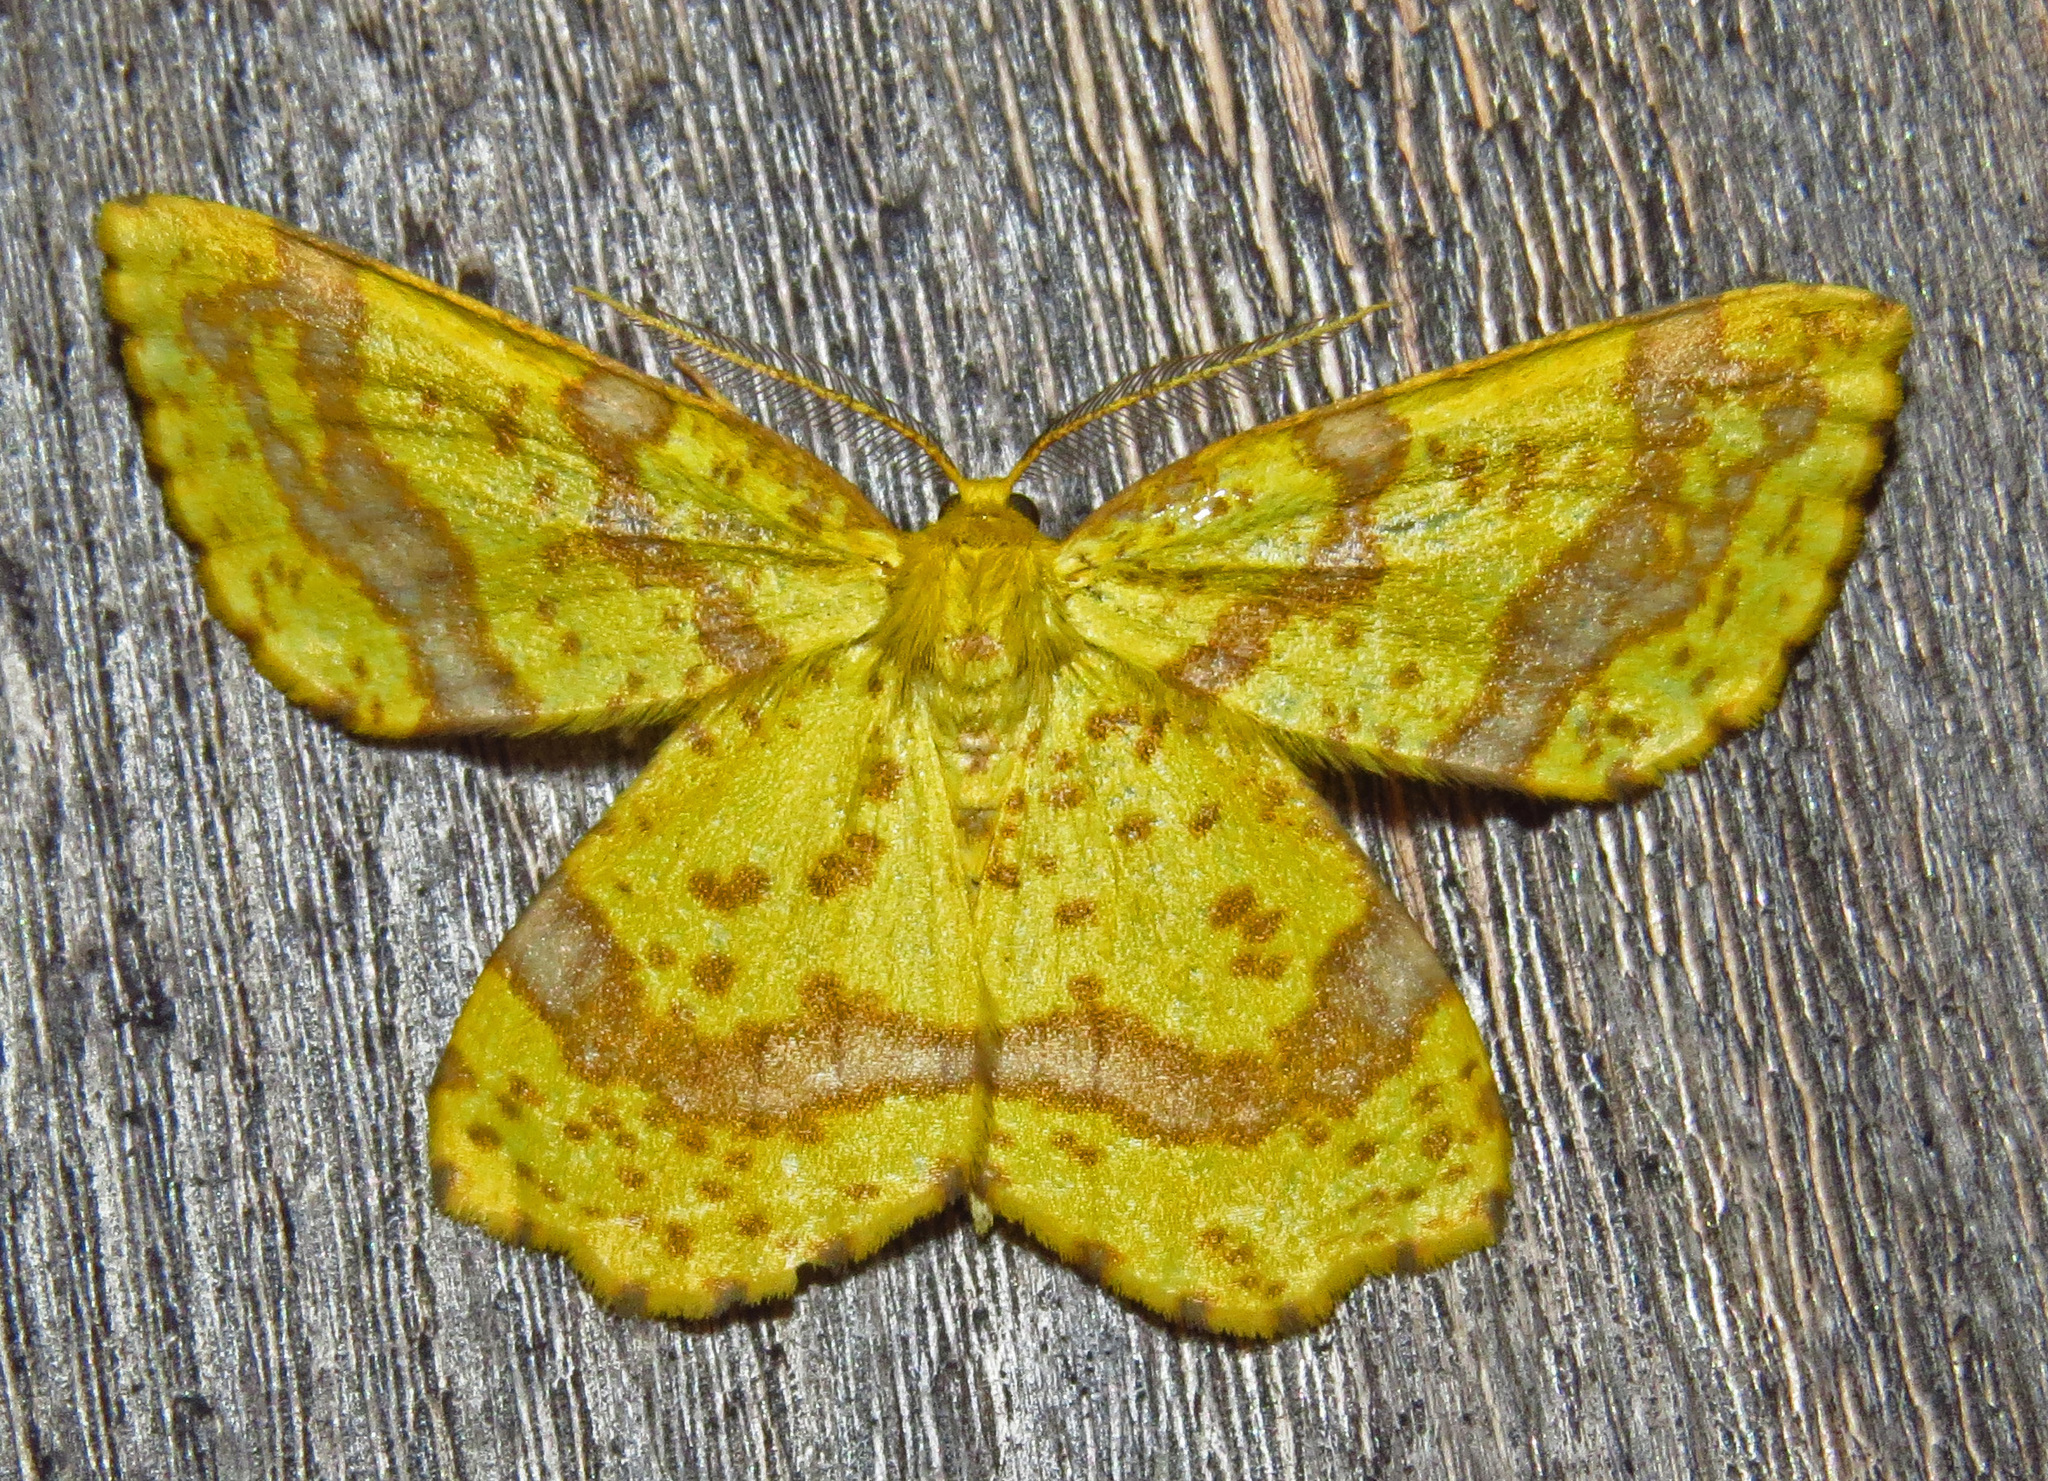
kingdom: Animalia
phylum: Arthropoda
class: Insecta
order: Lepidoptera
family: Geometridae
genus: Xanthotype
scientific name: Xanthotype
